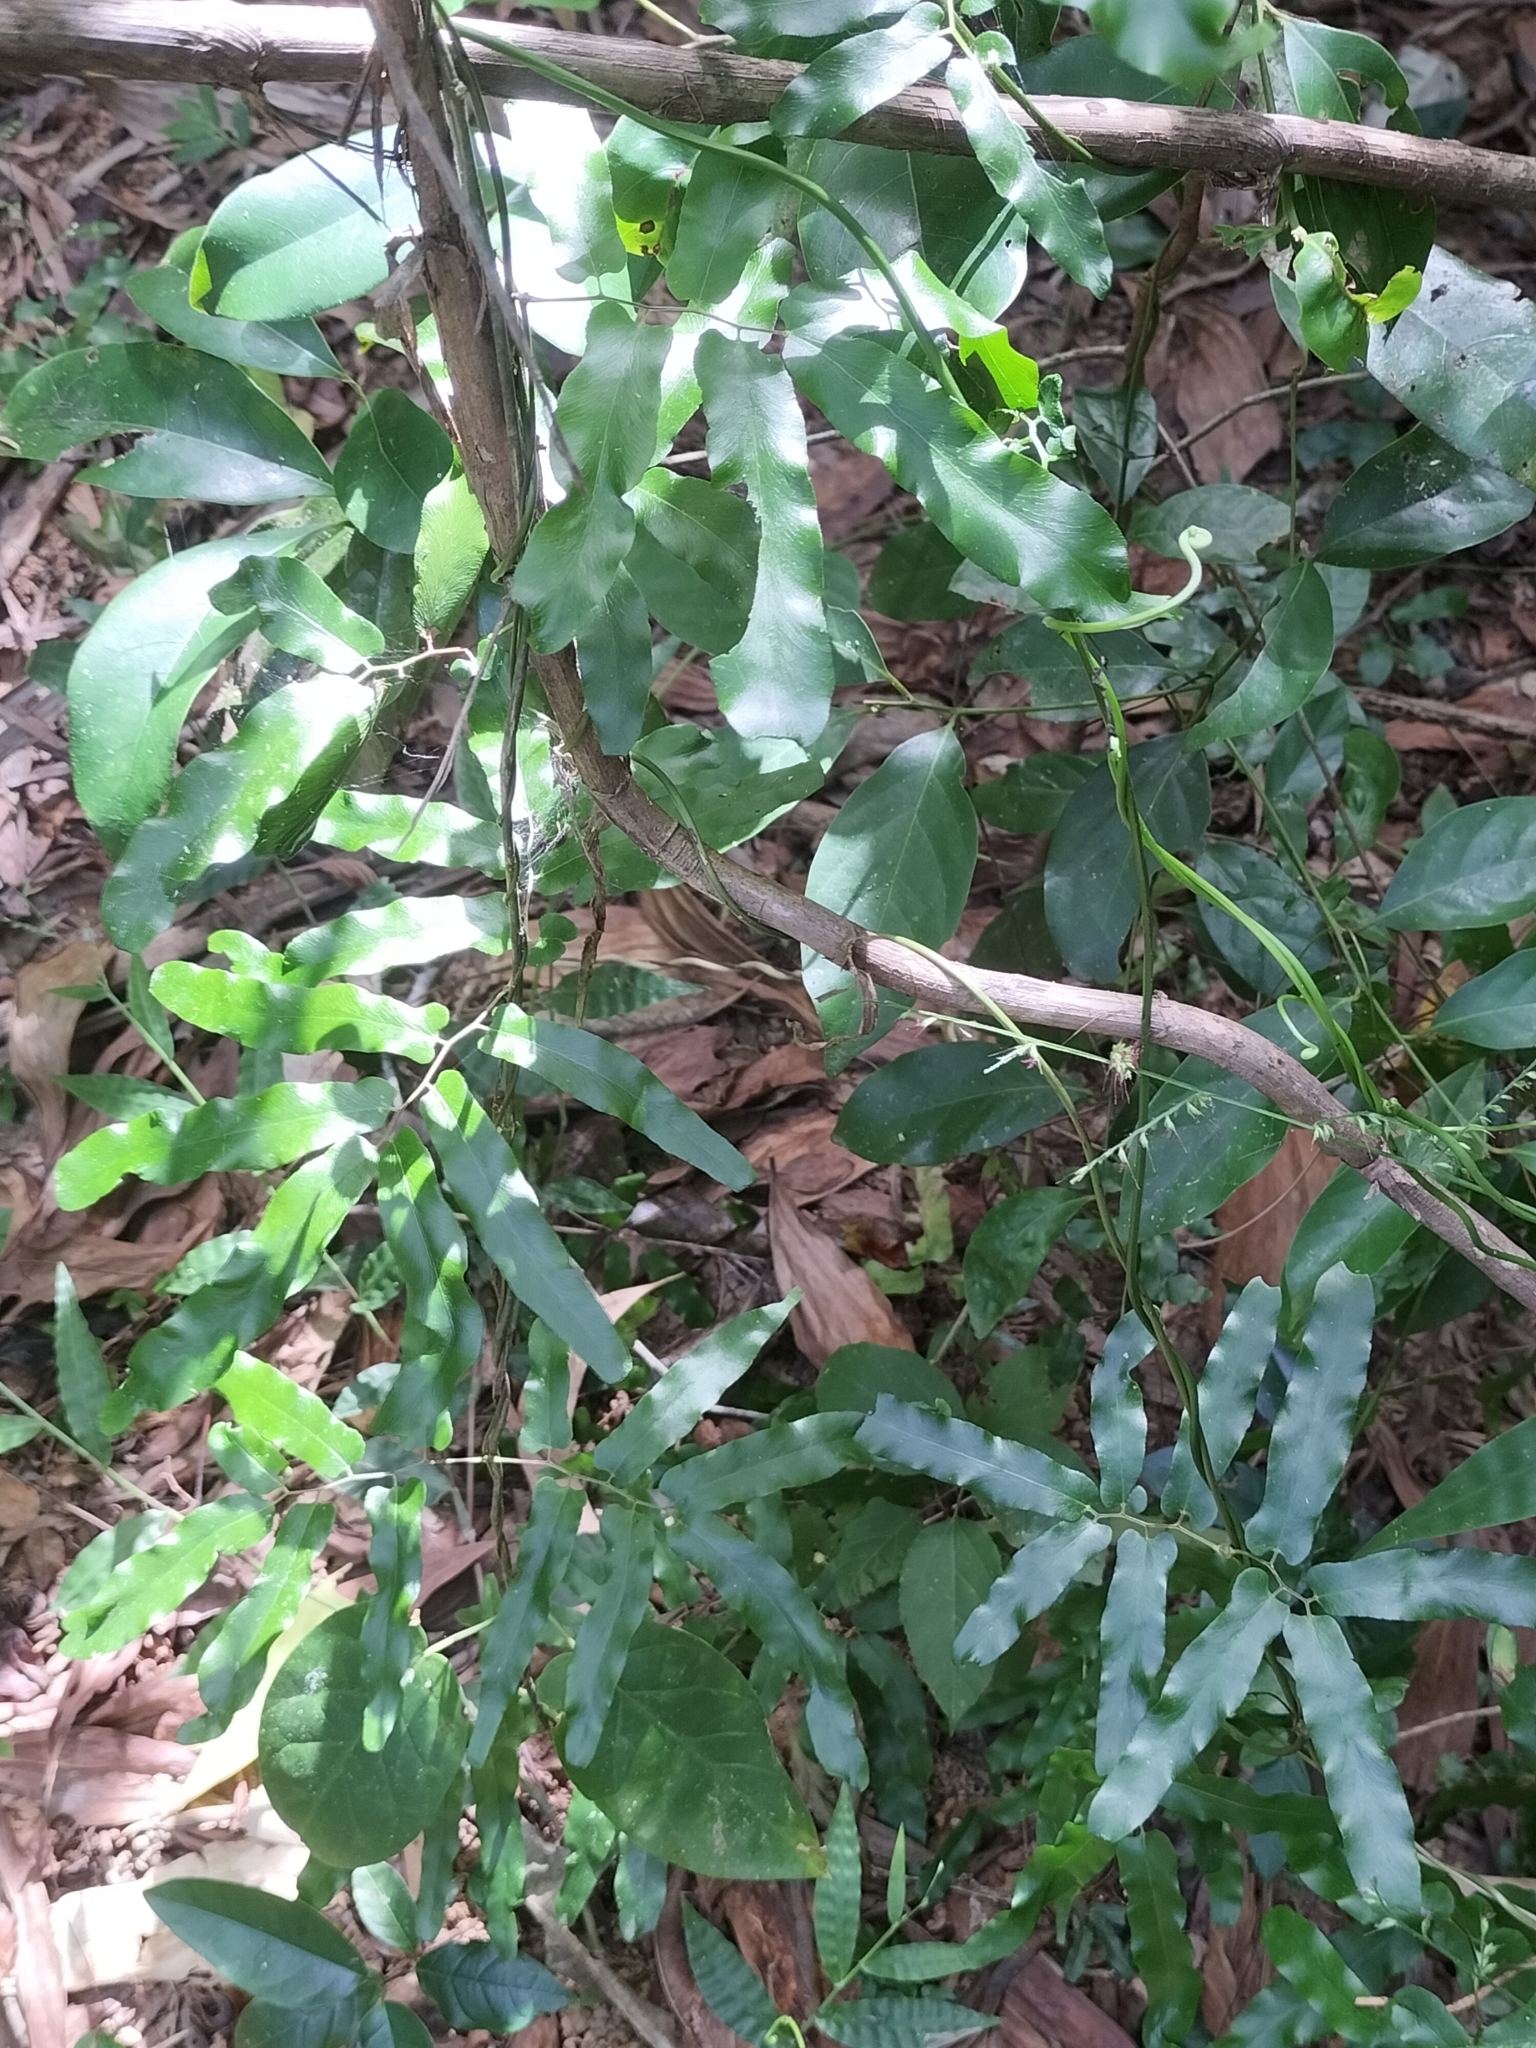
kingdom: Plantae
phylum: Tracheophyta
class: Polypodiopsida
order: Schizaeales
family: Lygodiaceae
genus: Lygodium
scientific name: Lygodium reticulatum
